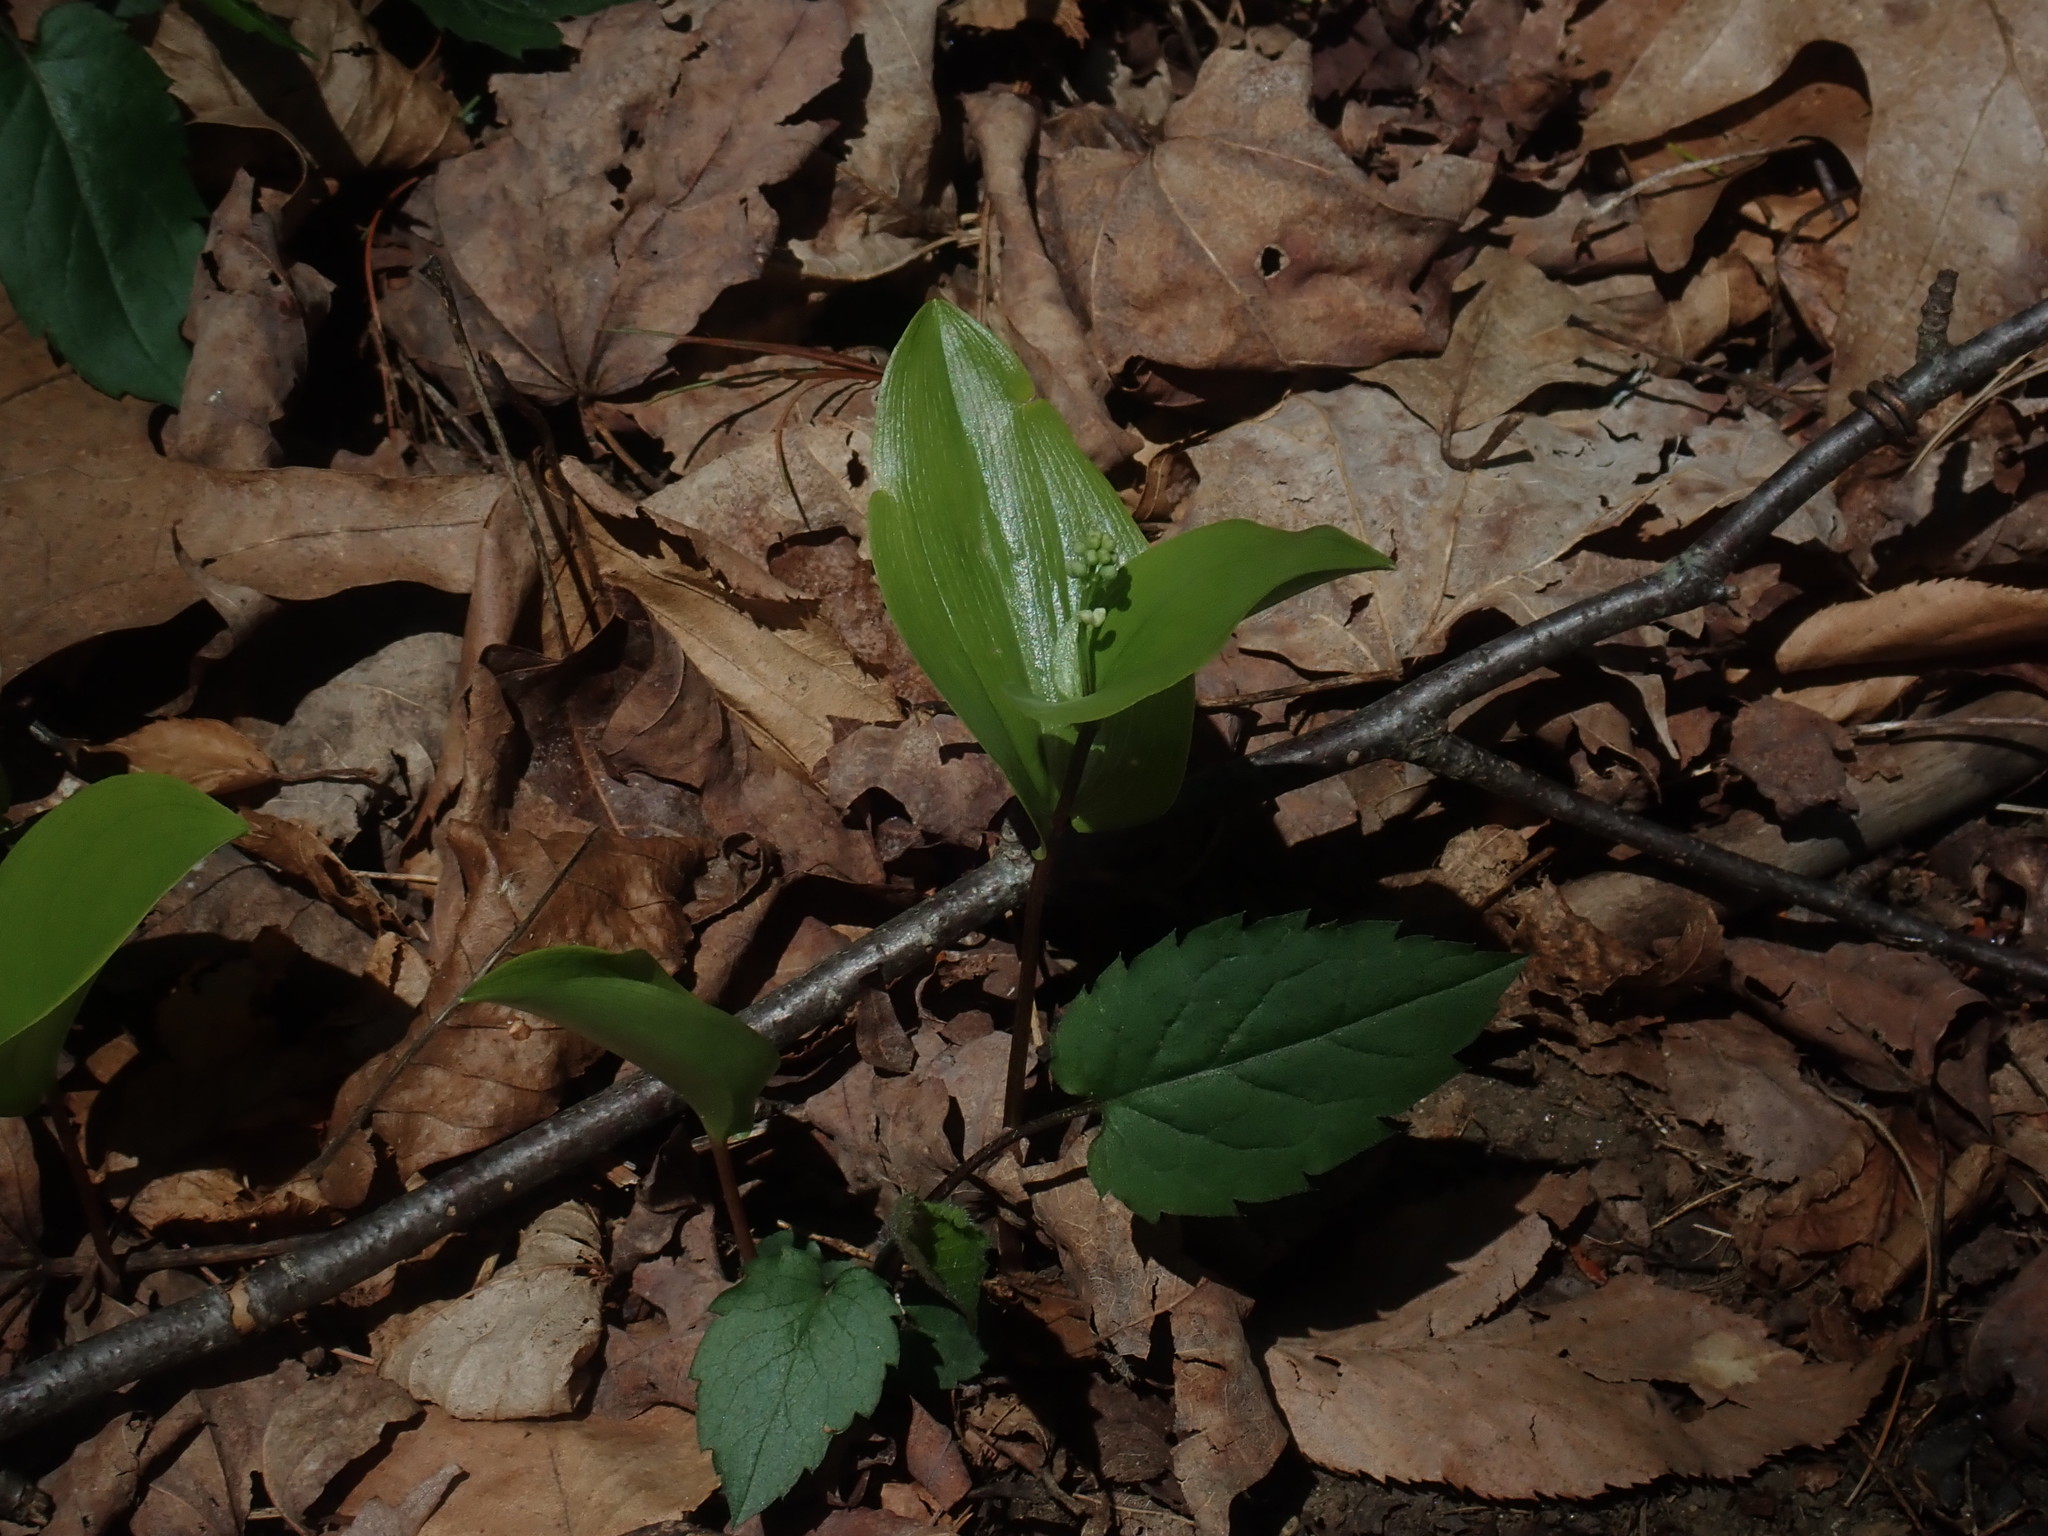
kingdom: Plantae
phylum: Tracheophyta
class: Liliopsida
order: Asparagales
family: Asparagaceae
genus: Maianthemum
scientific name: Maianthemum canadense
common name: False lily-of-the-valley
